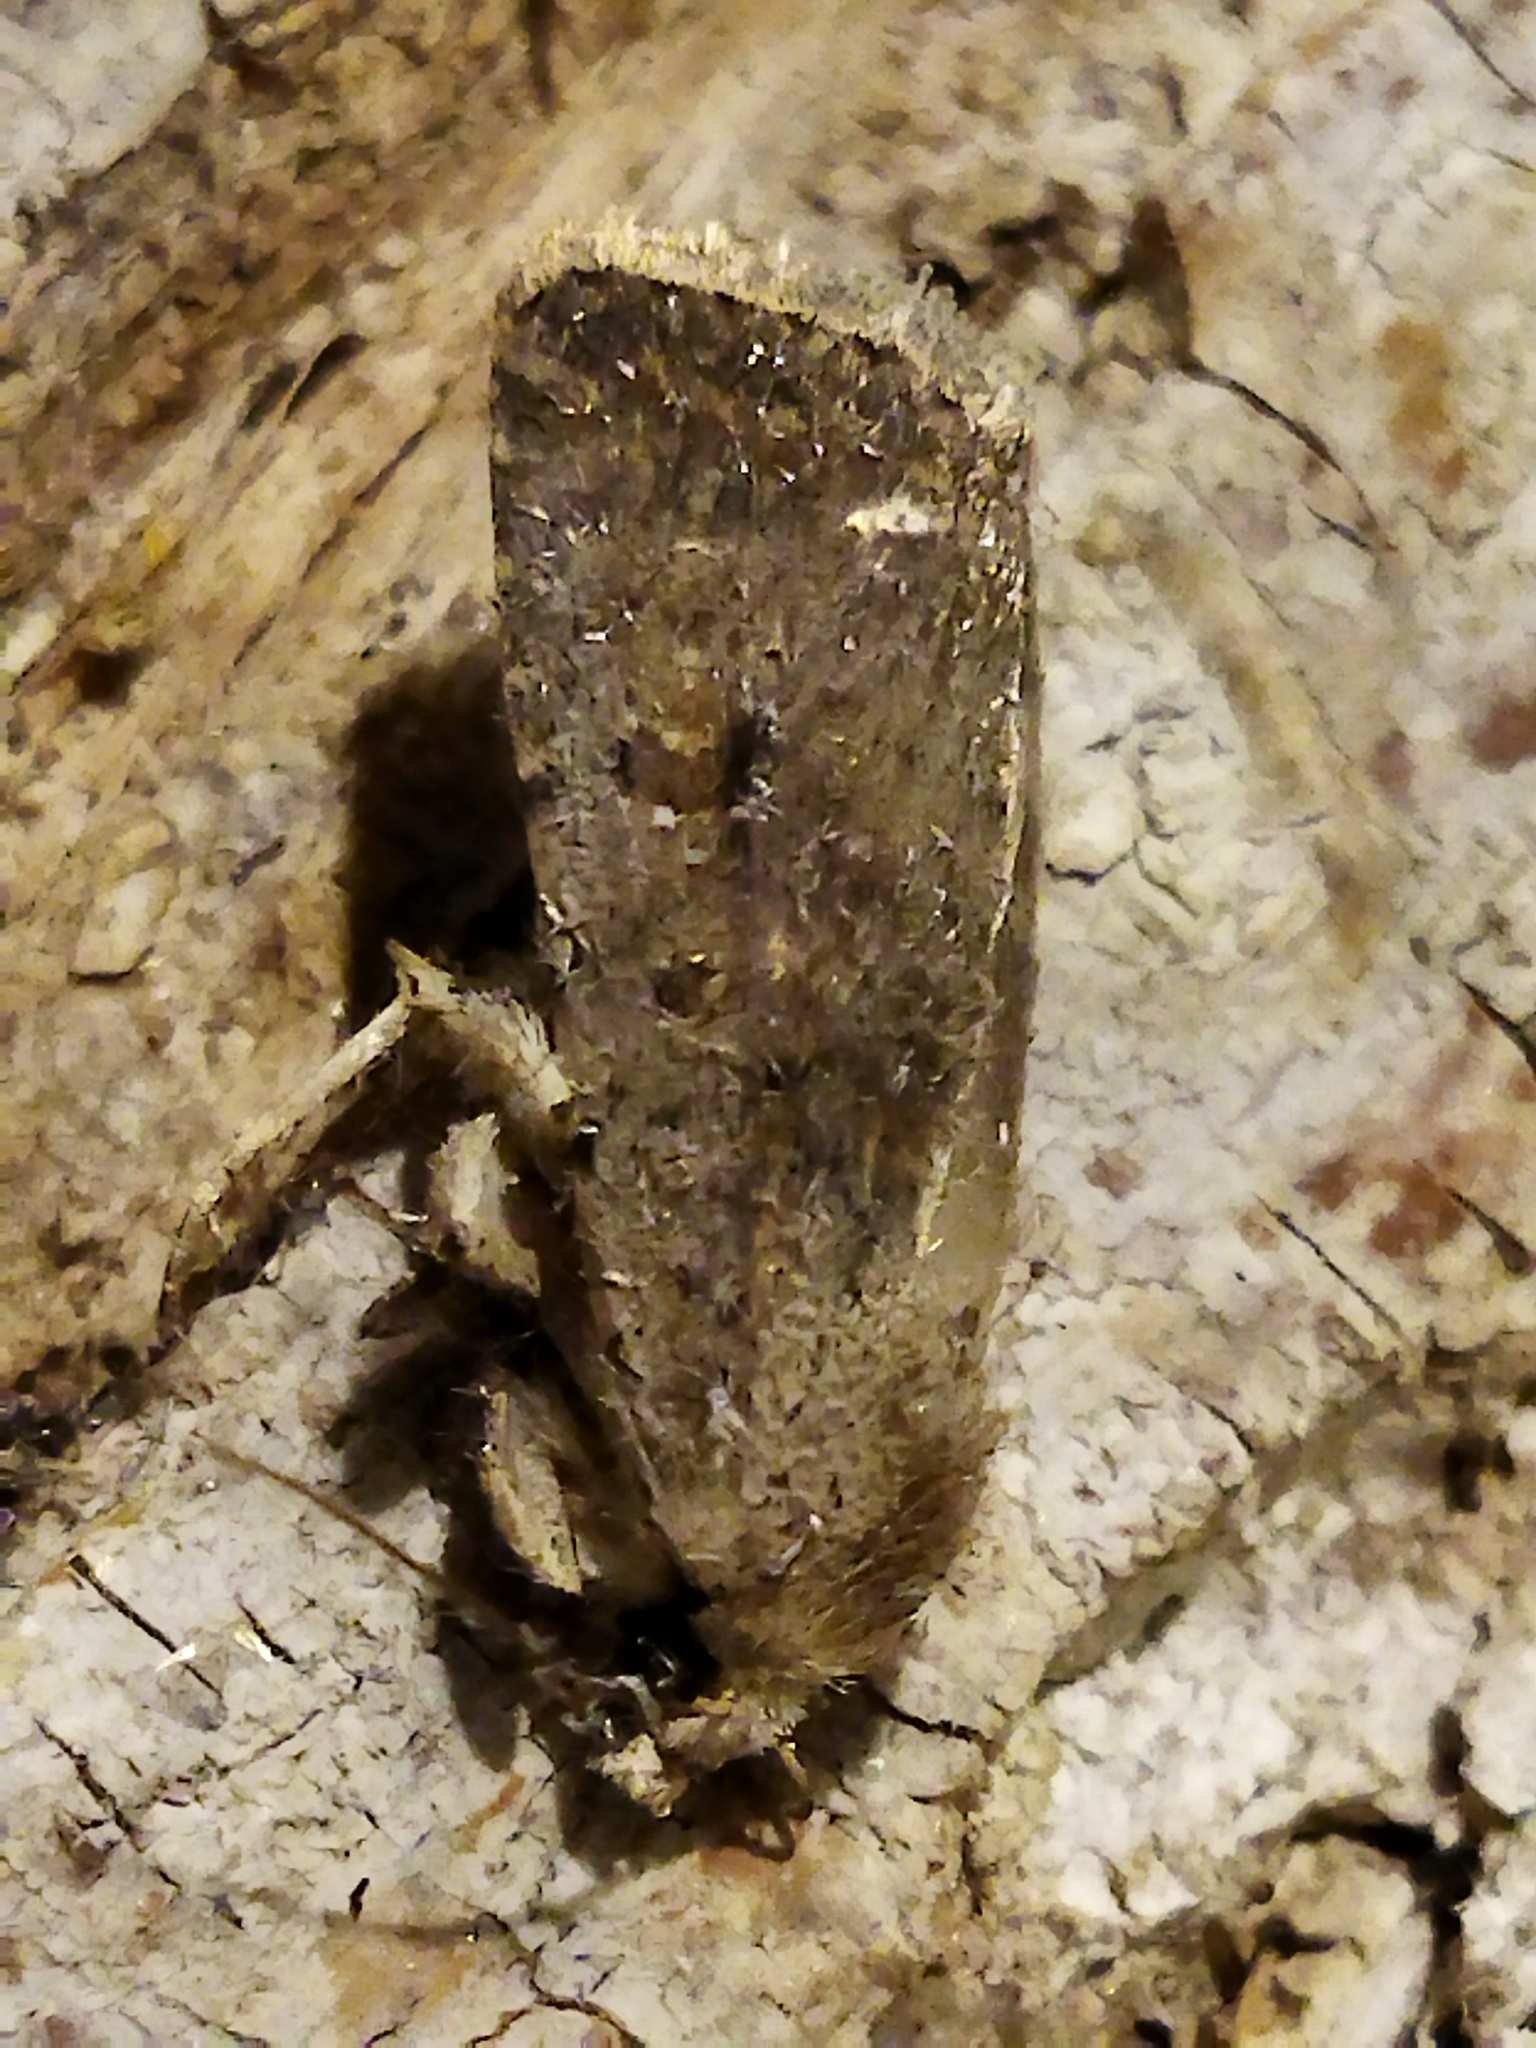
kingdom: Animalia
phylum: Arthropoda
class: Insecta
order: Lepidoptera
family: Noctuidae
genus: Caradrina
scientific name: Caradrina clavipalpis
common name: Pale mottled willow
